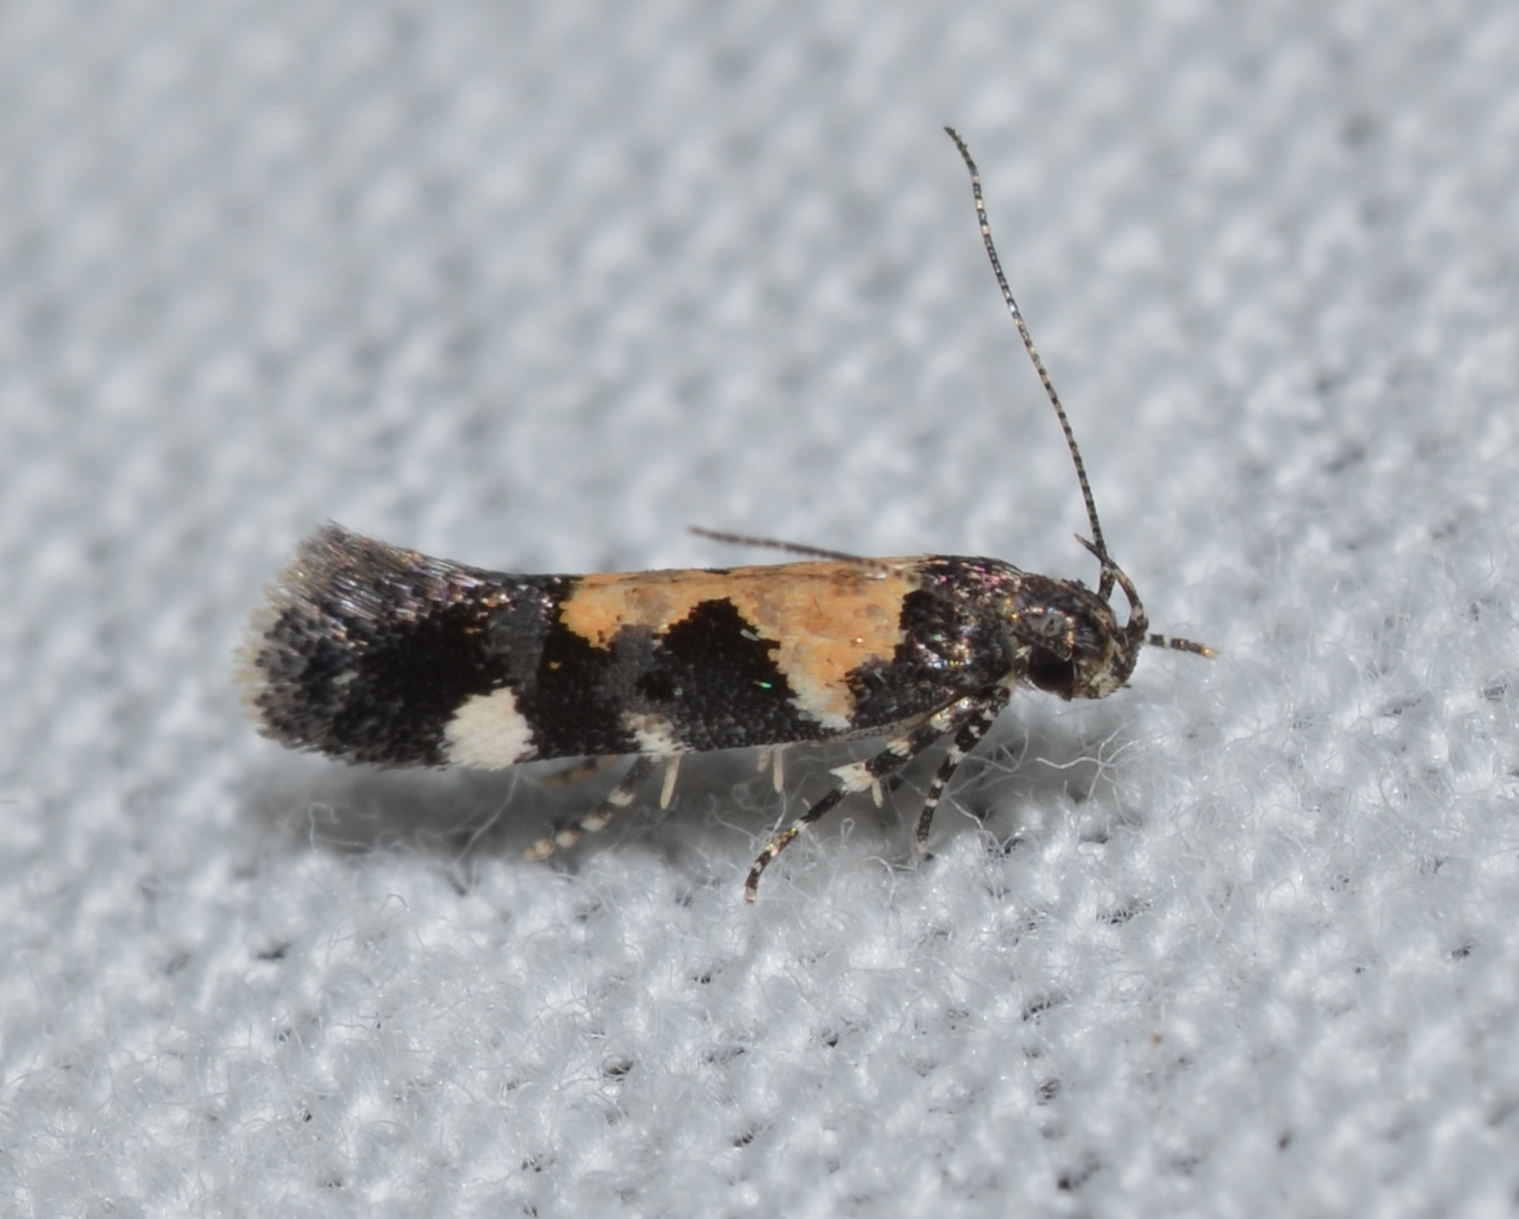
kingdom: Animalia
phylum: Arthropoda
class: Insecta
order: Lepidoptera
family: Gelechiidae
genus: Stegasta
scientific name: Stegasta bosqueella
